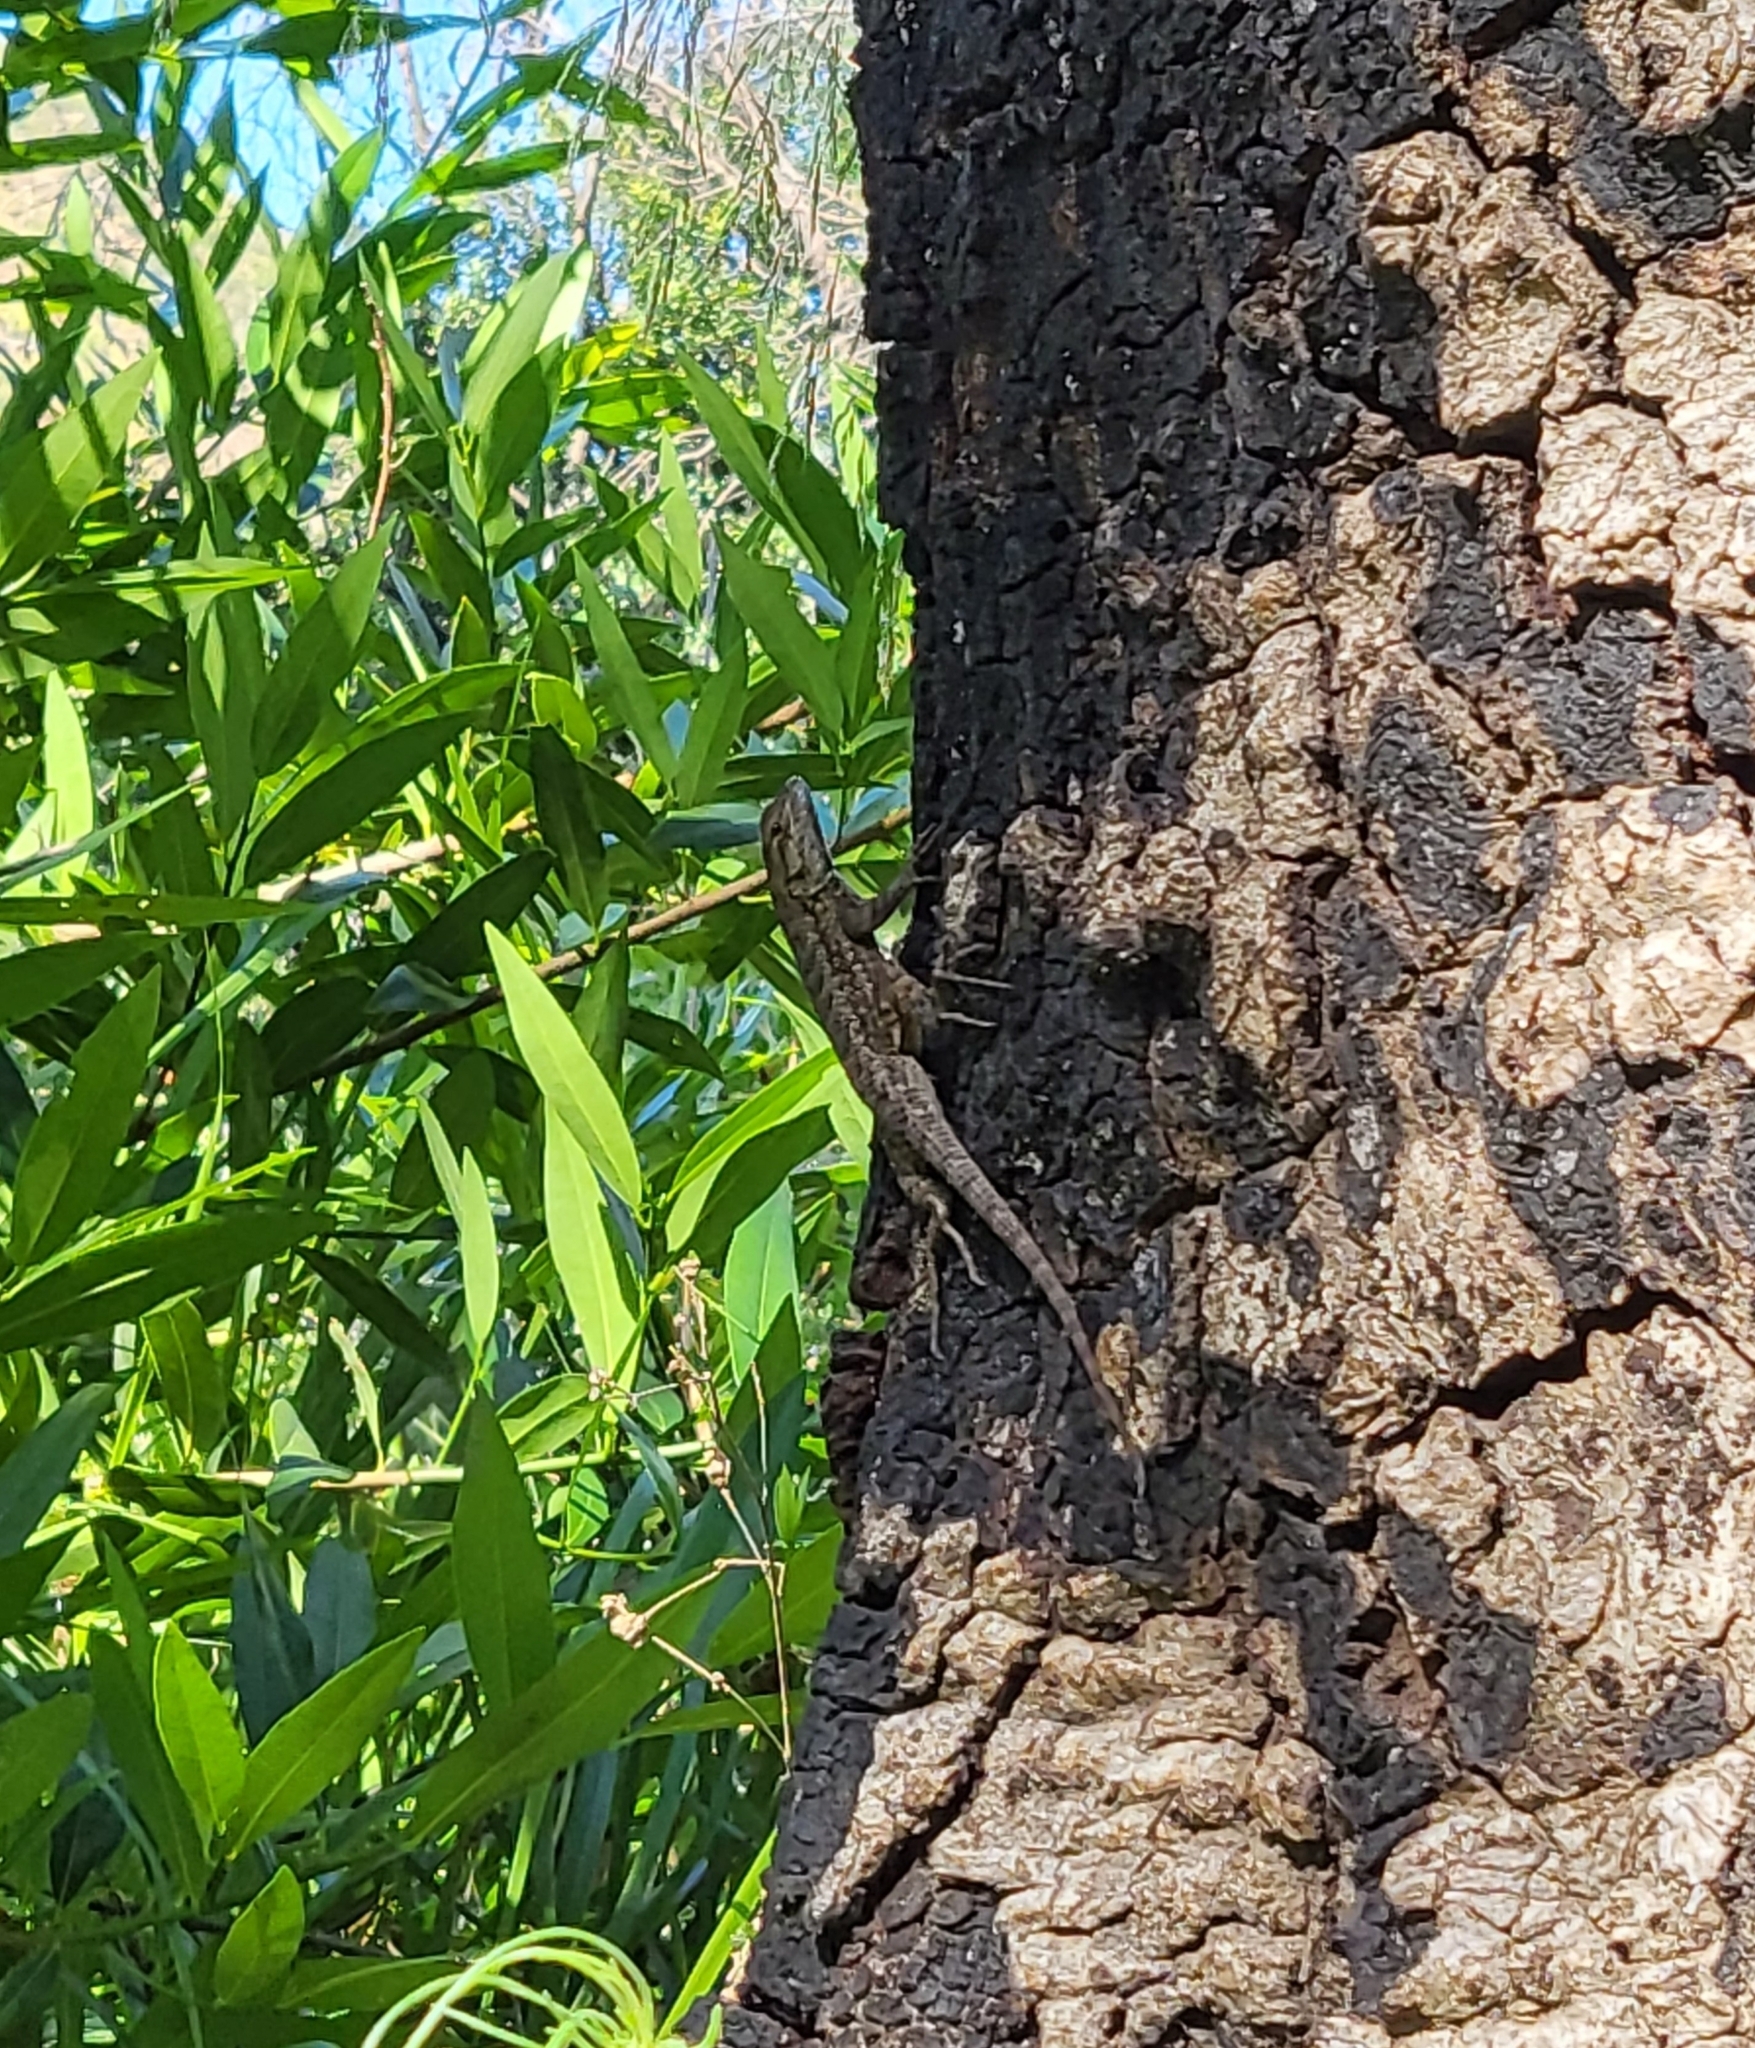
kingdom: Animalia
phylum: Chordata
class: Squamata
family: Phrynosomatidae
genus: Sceloporus
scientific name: Sceloporus occidentalis
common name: Western fence lizard
